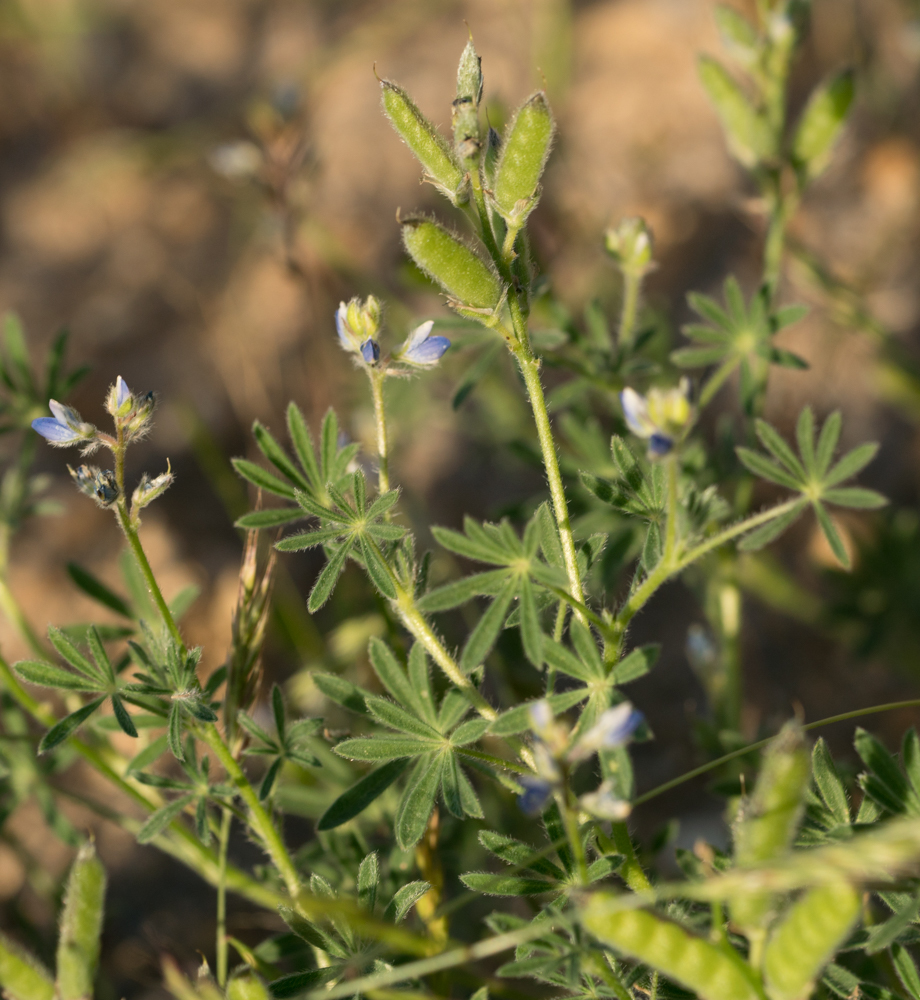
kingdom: Plantae
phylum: Tracheophyta
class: Magnoliopsida
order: Fabales
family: Fabaceae
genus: Lupinus
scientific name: Lupinus bicolor
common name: Miniature lupine
